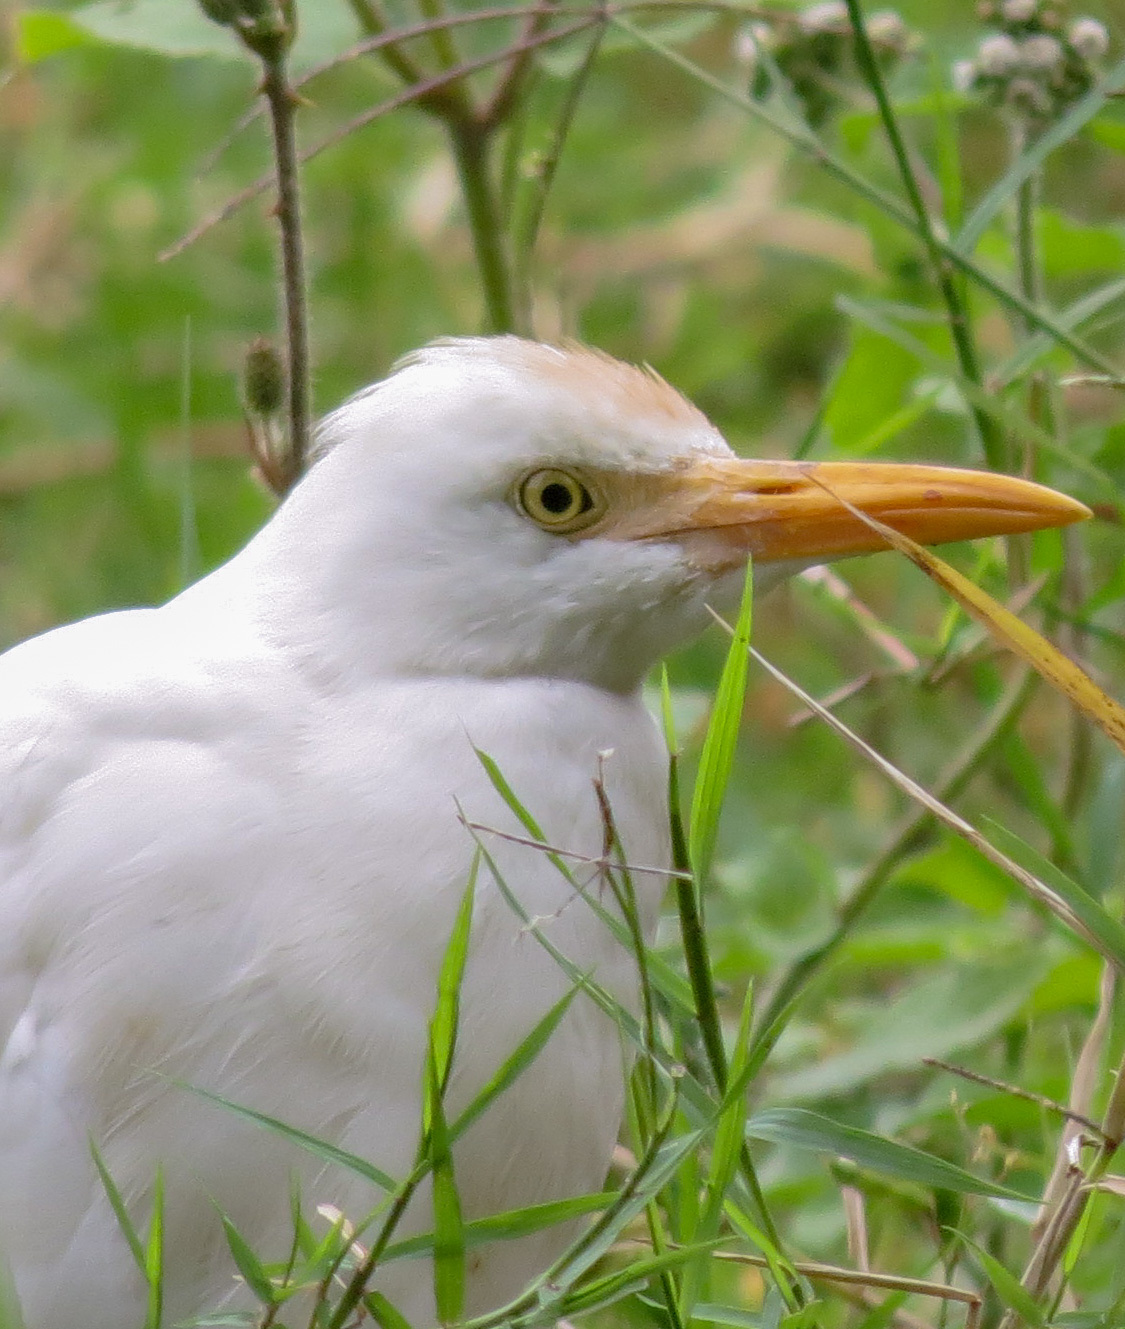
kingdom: Animalia
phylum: Chordata
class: Aves
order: Pelecaniformes
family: Ardeidae
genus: Bubulcus
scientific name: Bubulcus ibis
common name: Cattle egret
